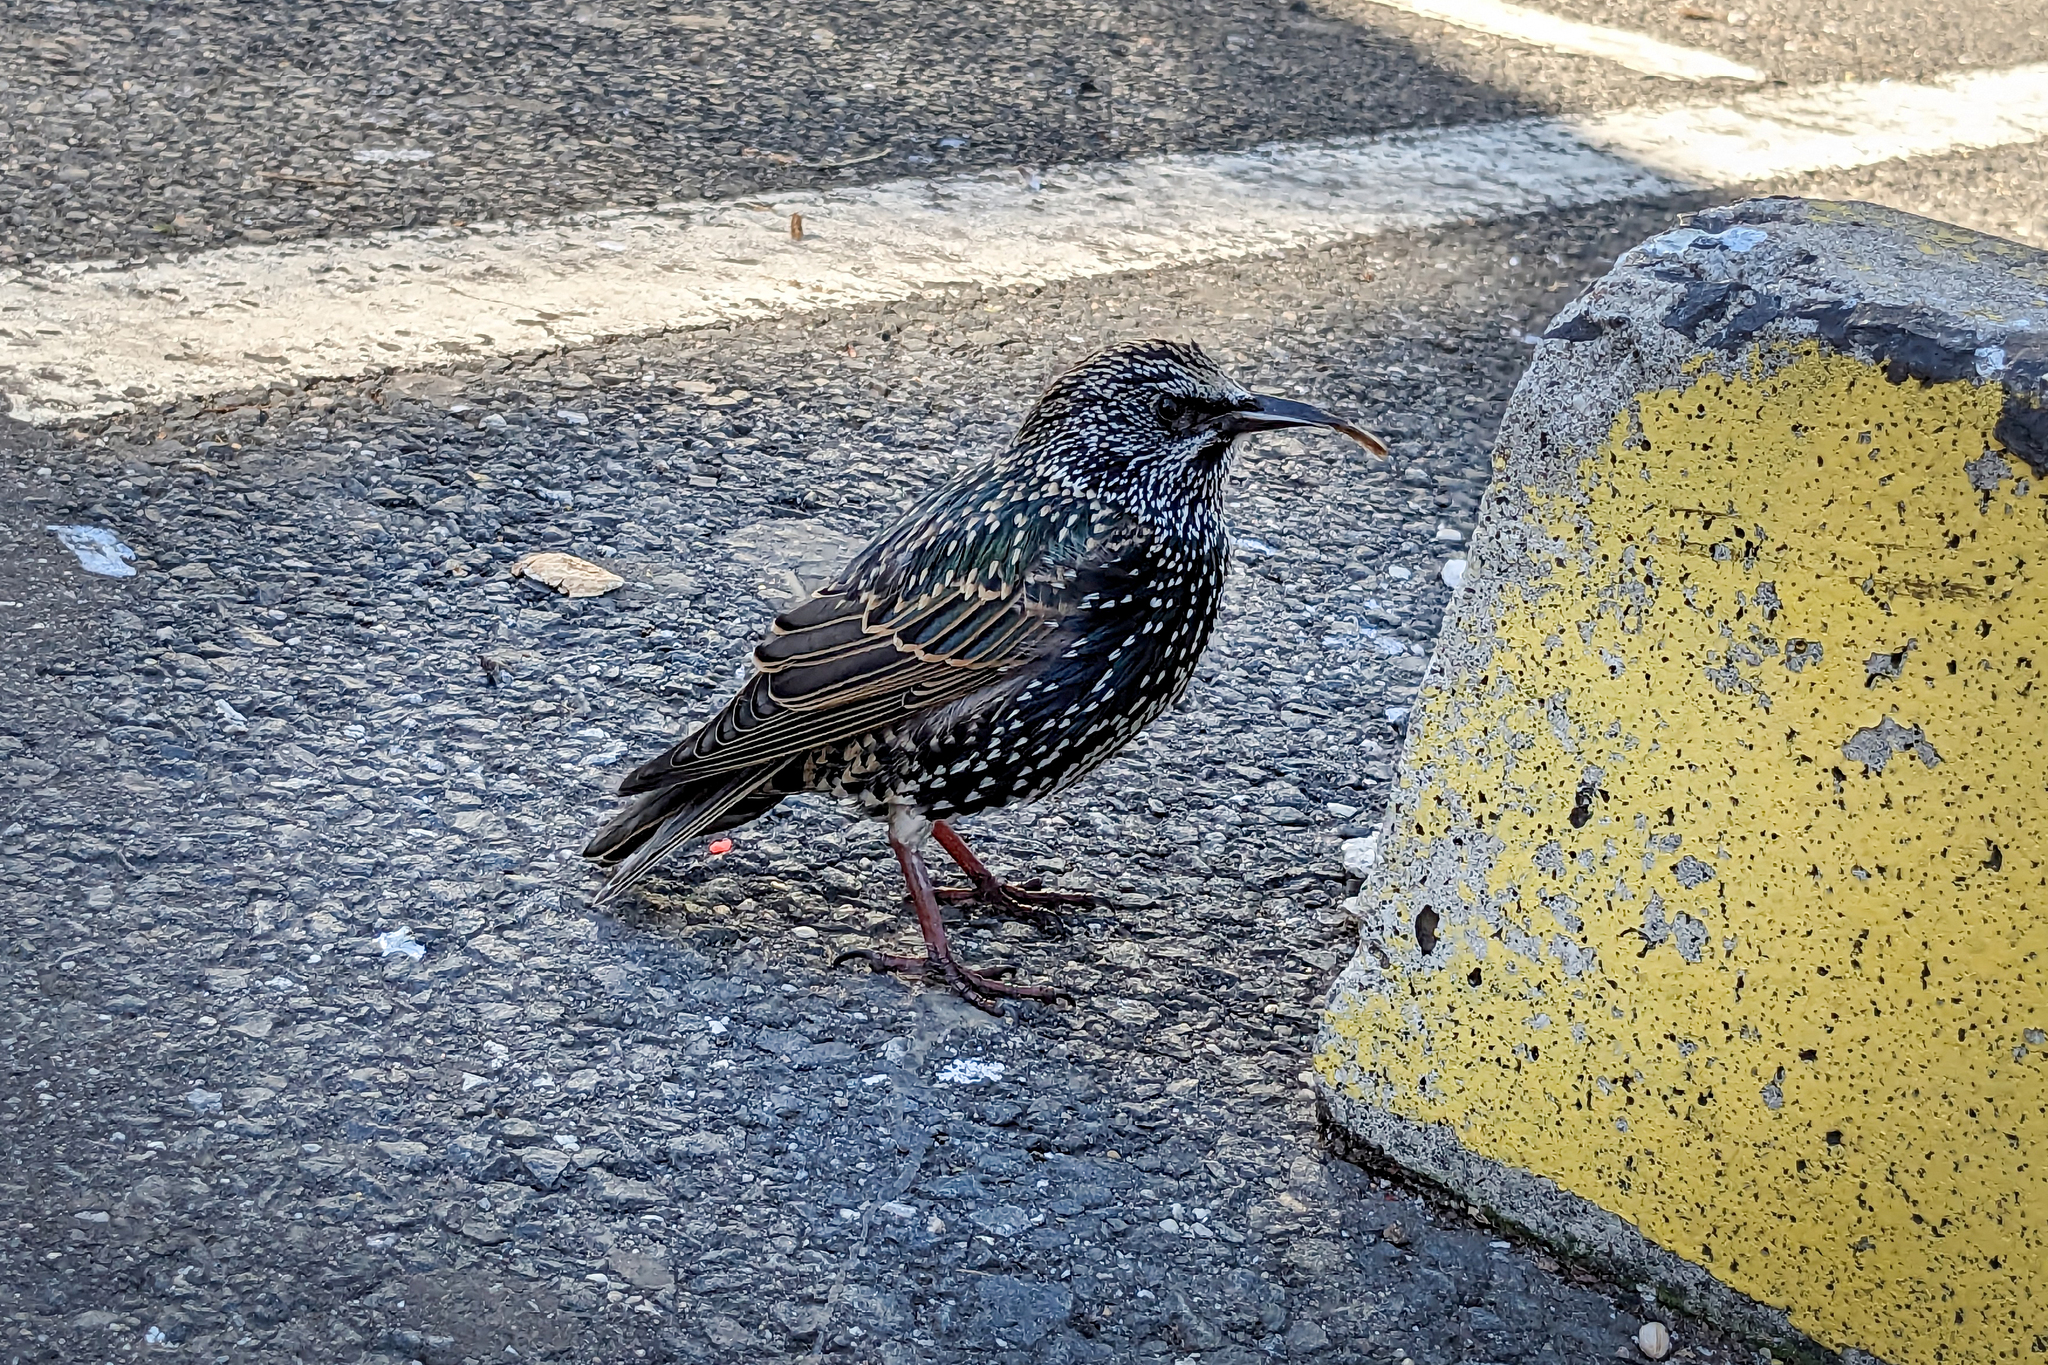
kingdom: Animalia
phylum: Chordata
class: Aves
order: Passeriformes
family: Sturnidae
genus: Sturnus
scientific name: Sturnus vulgaris
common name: Common starling
